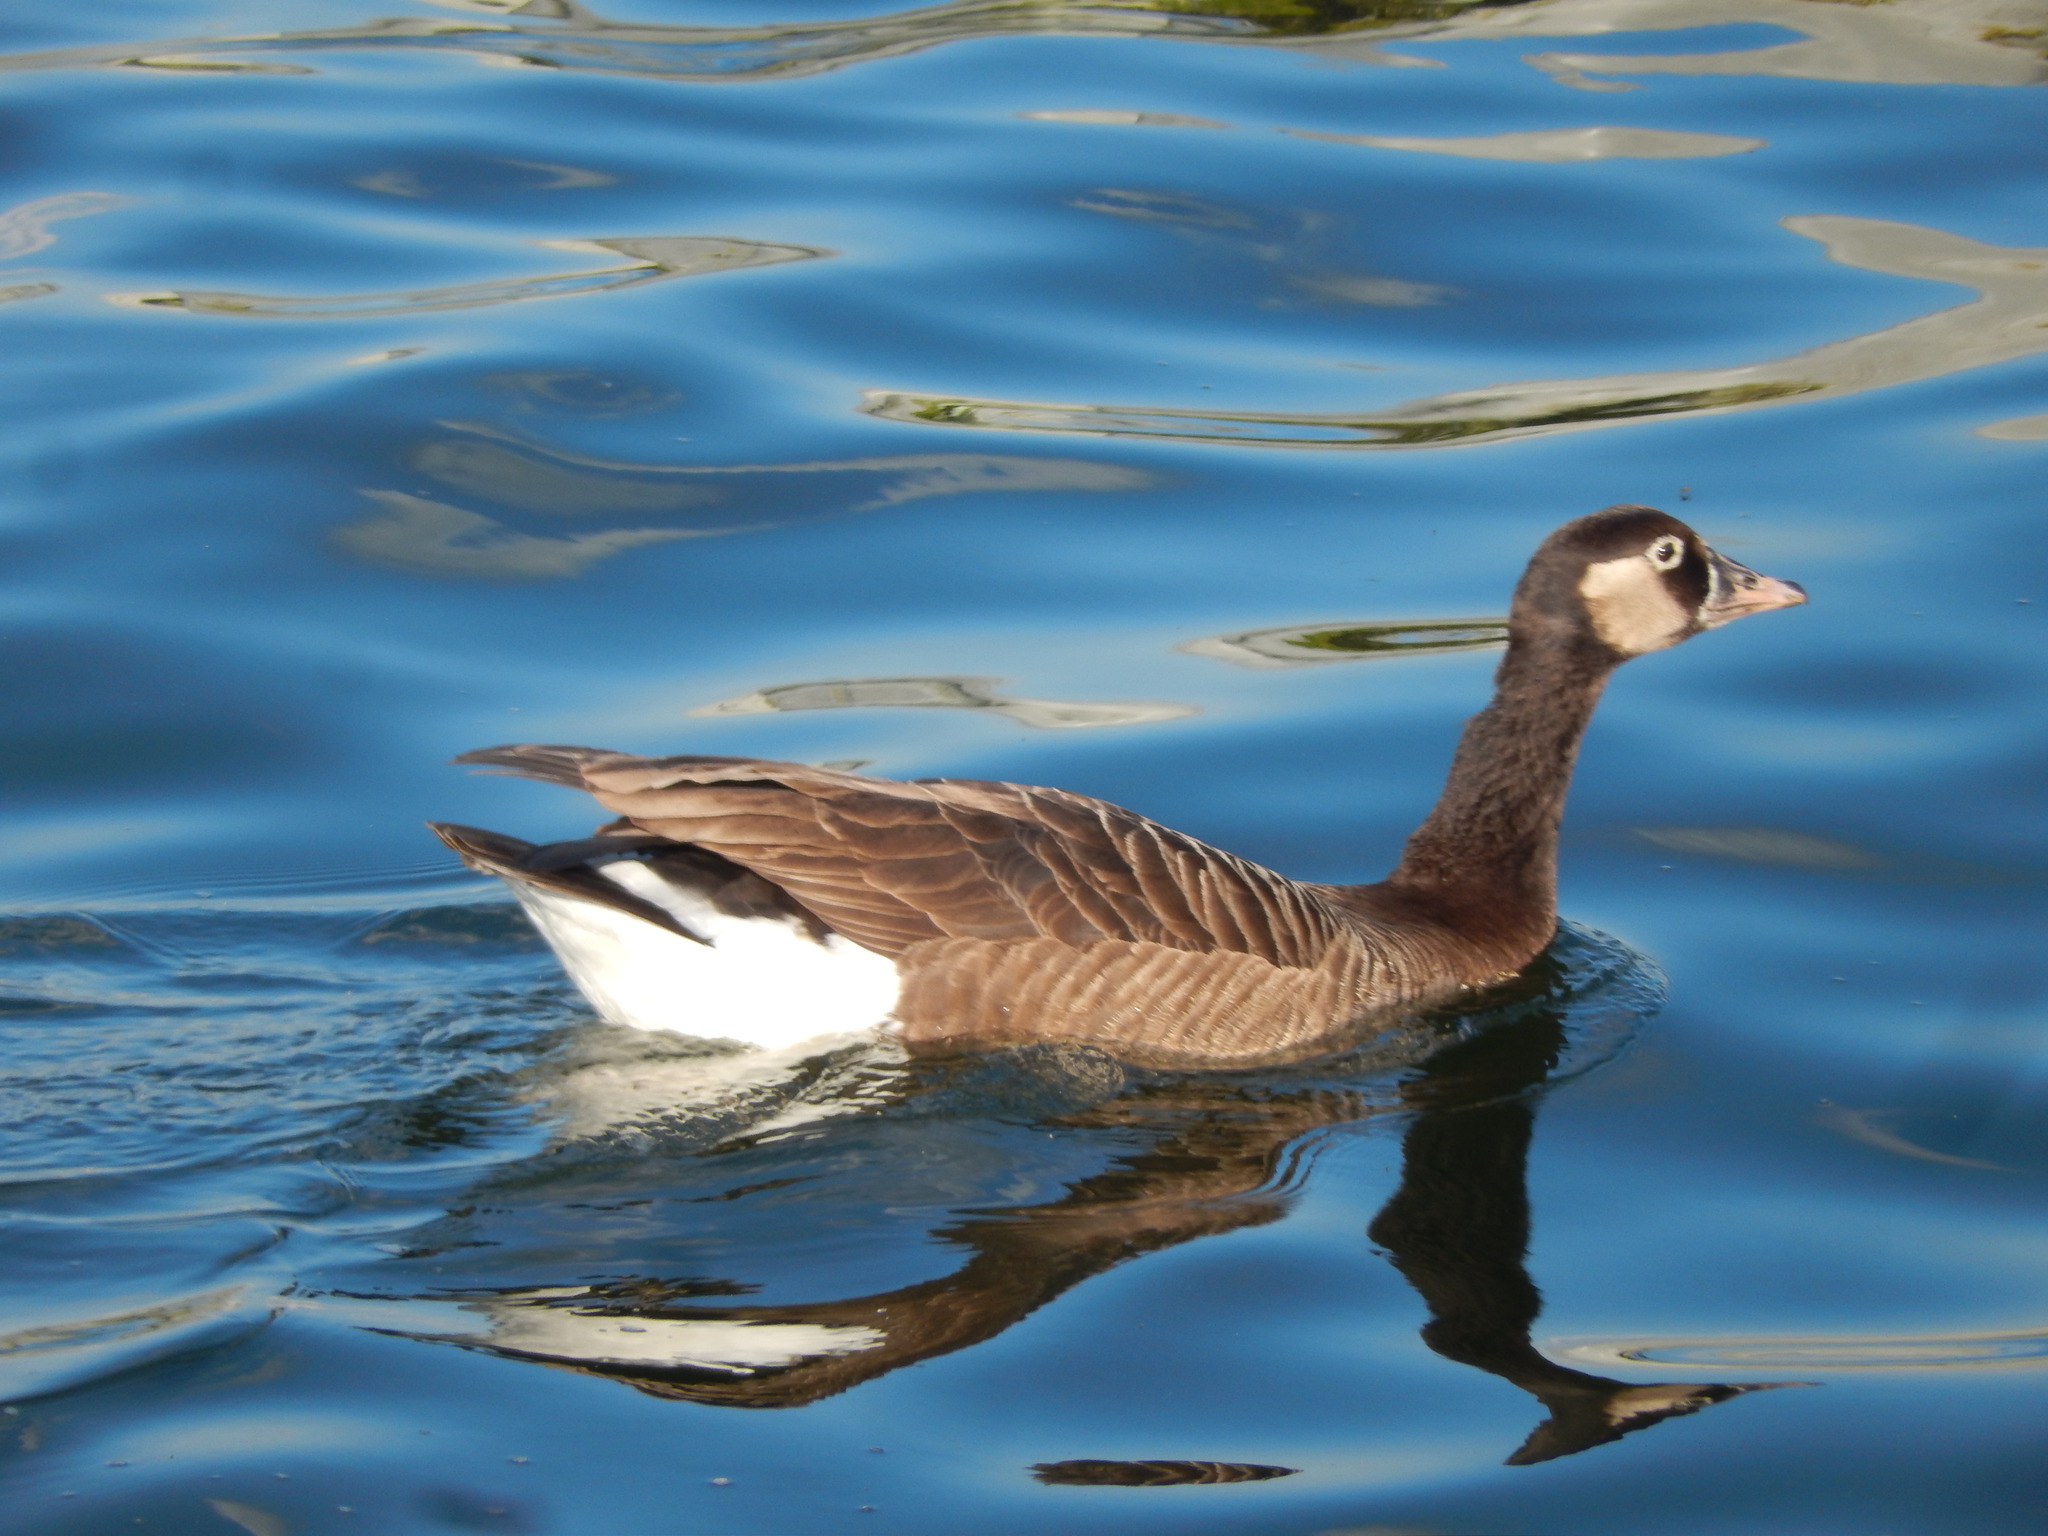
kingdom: Animalia
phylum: Chordata
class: Aves
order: Anseriformes
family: Anatidae
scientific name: Anatidae
